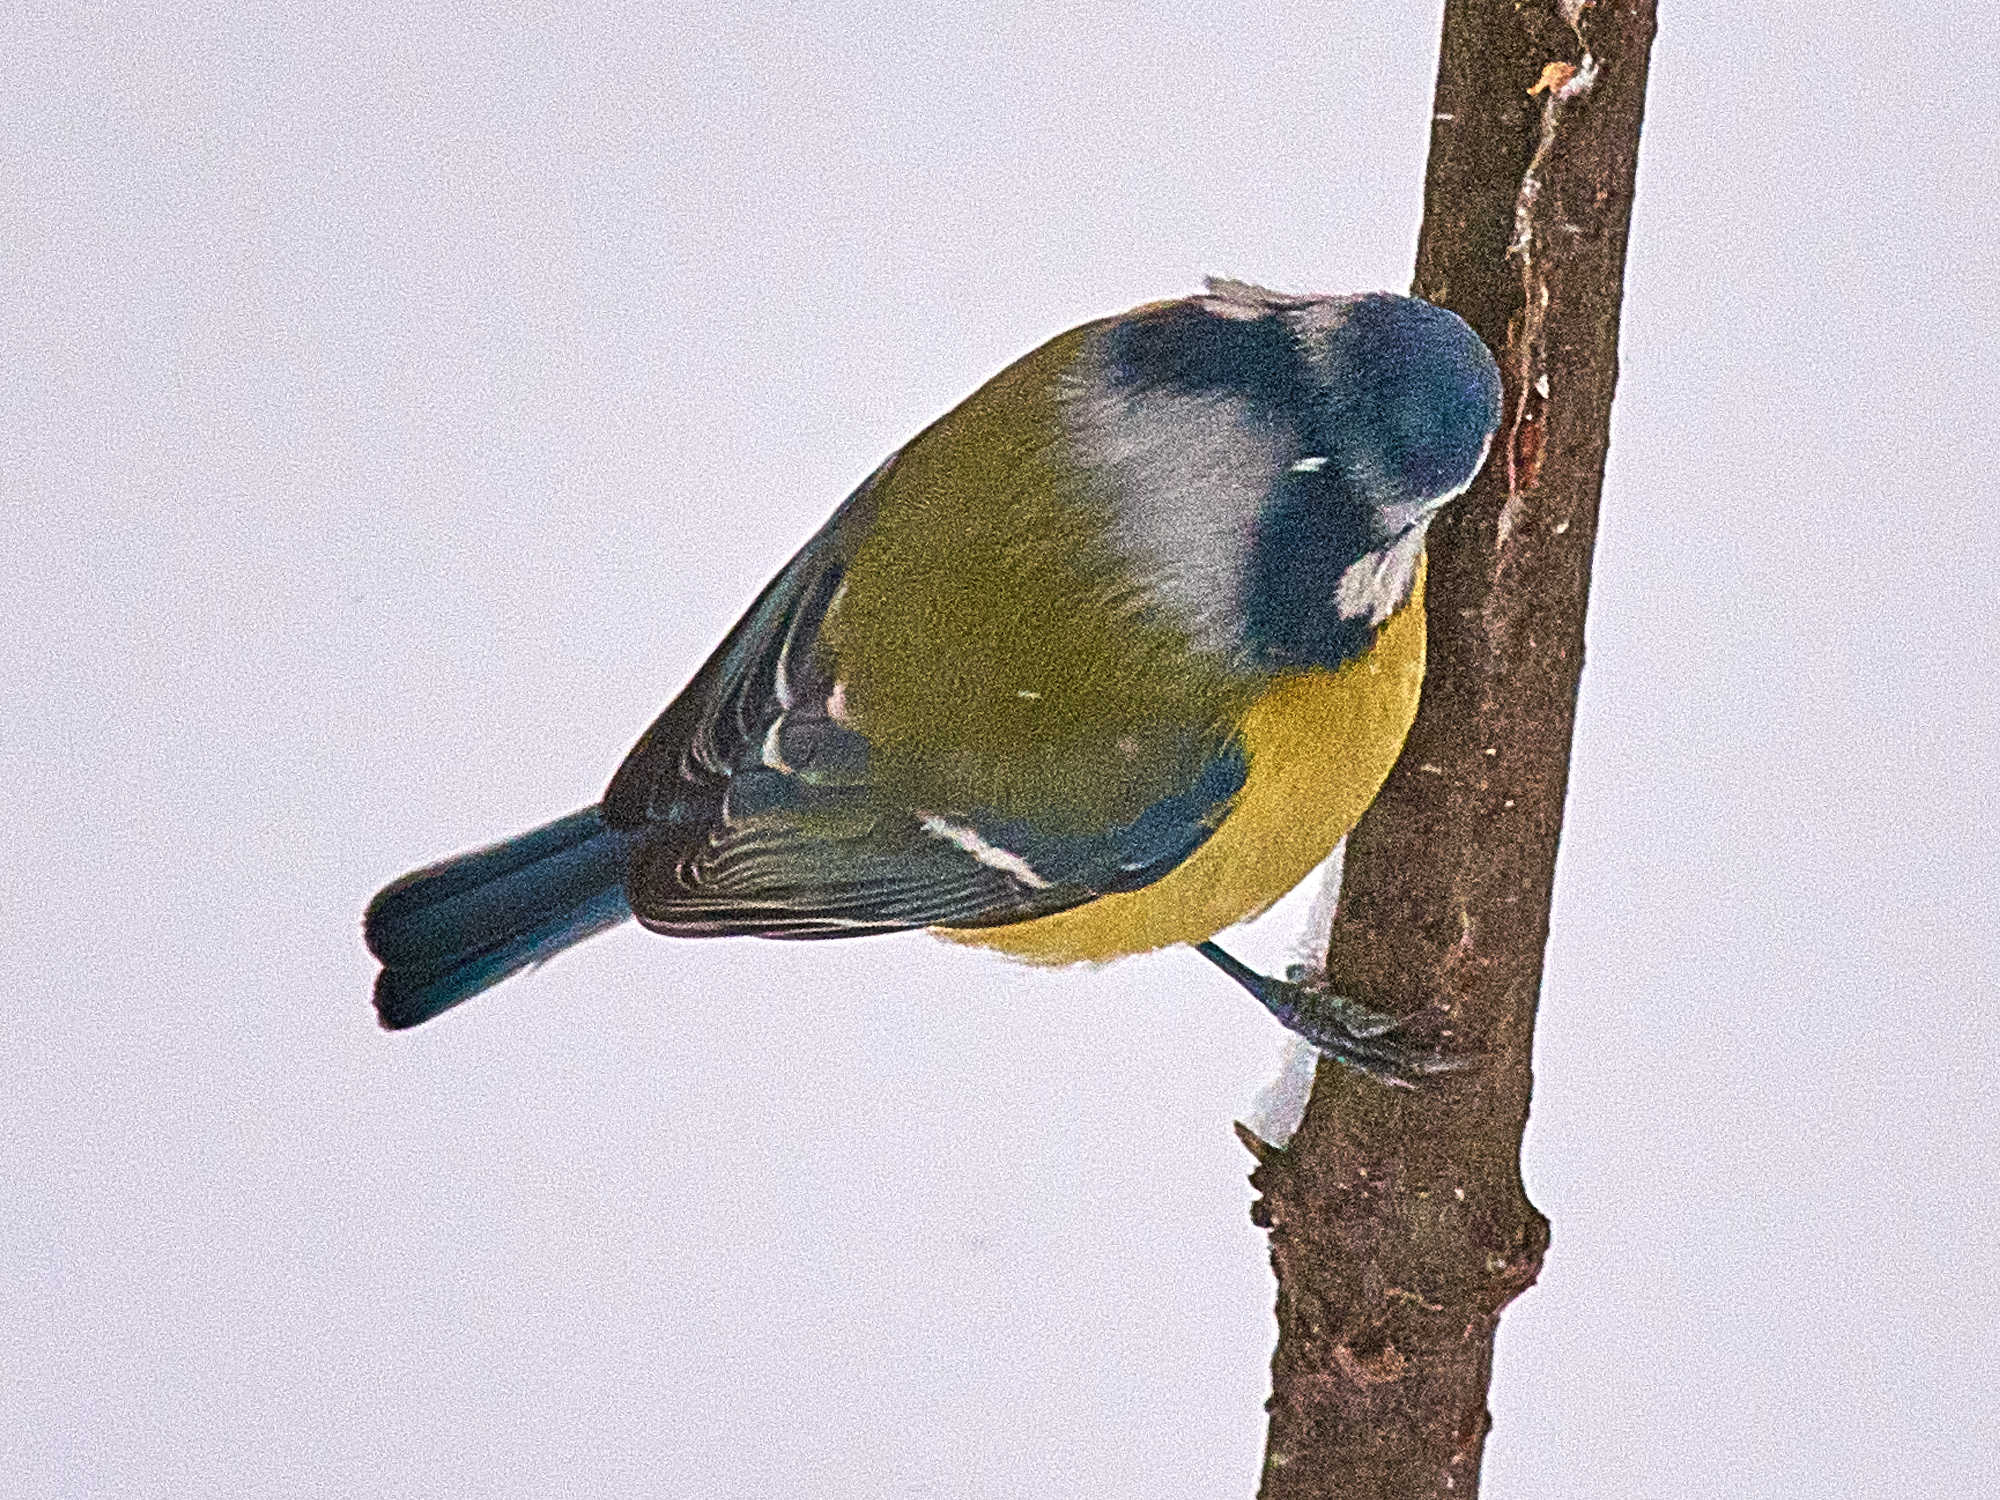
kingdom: Animalia
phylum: Chordata
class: Aves
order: Passeriformes
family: Paridae
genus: Cyanistes
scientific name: Cyanistes caeruleus
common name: Eurasian blue tit
